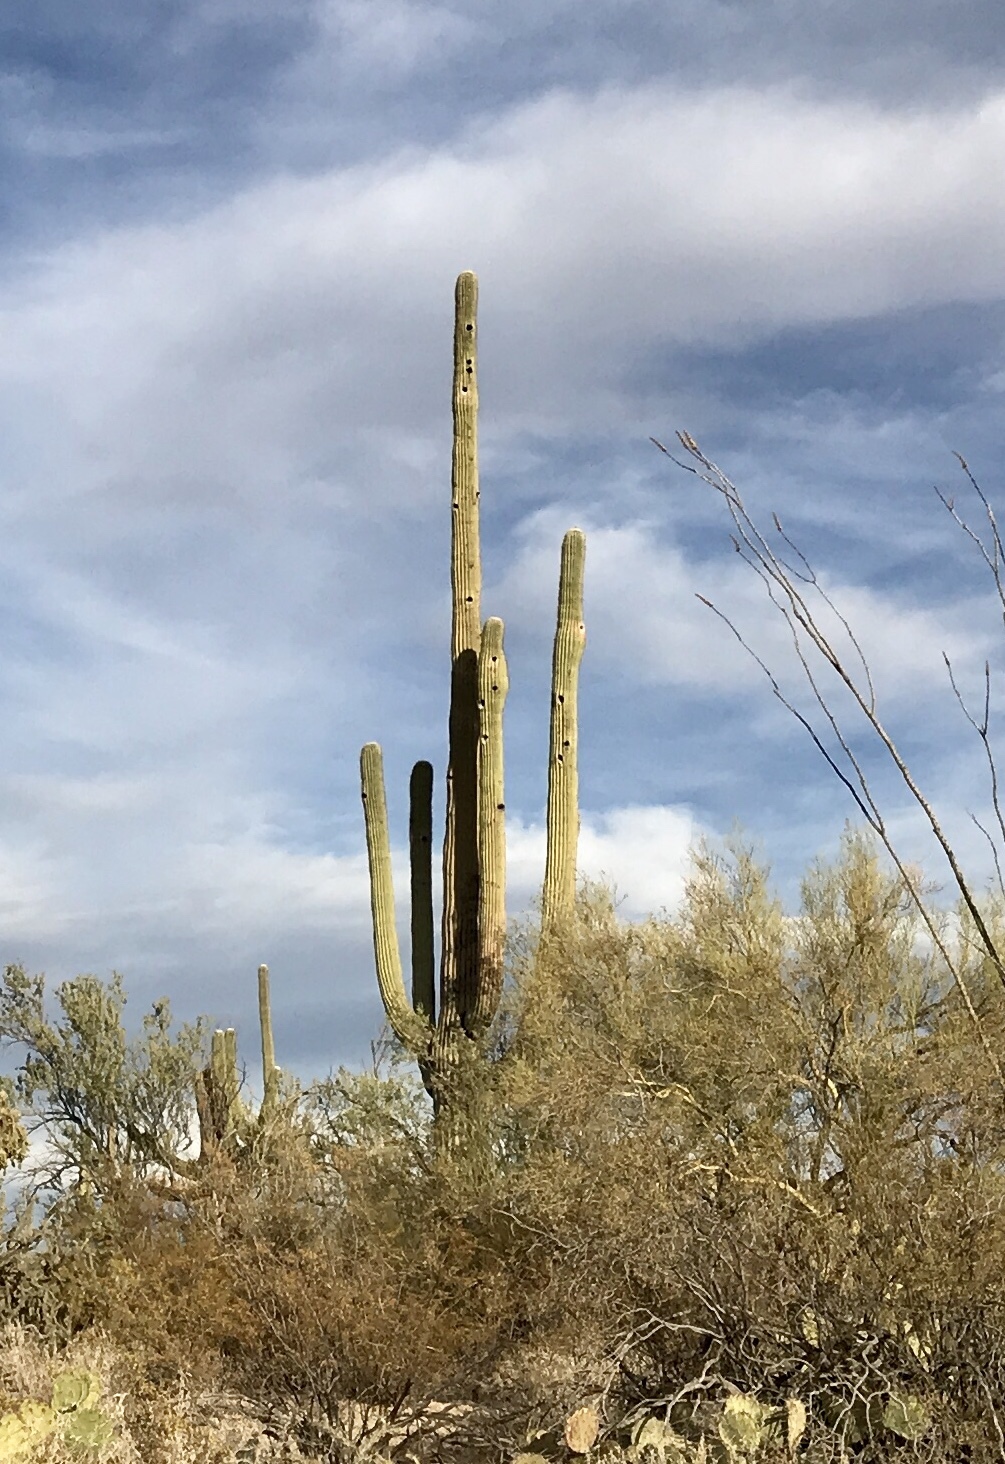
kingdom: Plantae
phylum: Tracheophyta
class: Magnoliopsida
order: Caryophyllales
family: Cactaceae
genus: Carnegiea
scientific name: Carnegiea gigantea
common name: Saguaro
